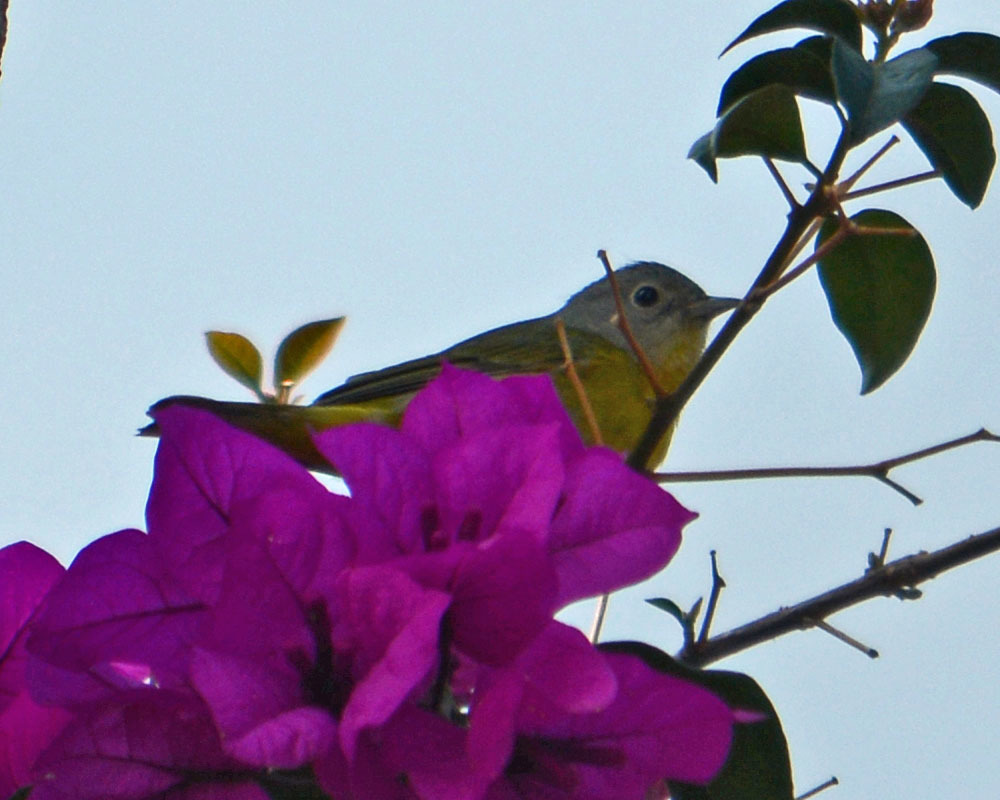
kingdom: Animalia
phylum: Chordata
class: Aves
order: Passeriformes
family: Parulidae
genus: Leiothlypis
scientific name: Leiothlypis ruficapilla
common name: Nashville warbler
